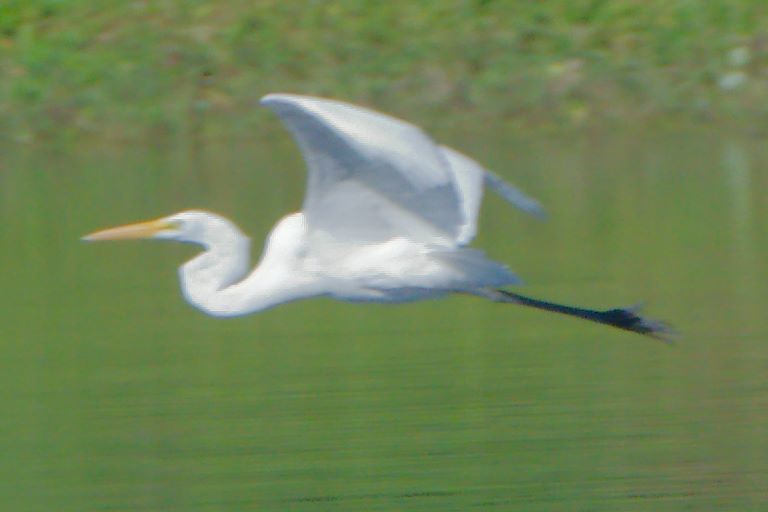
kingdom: Animalia
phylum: Chordata
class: Aves
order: Pelecaniformes
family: Ardeidae
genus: Ardea
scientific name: Ardea alba
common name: Great egret
